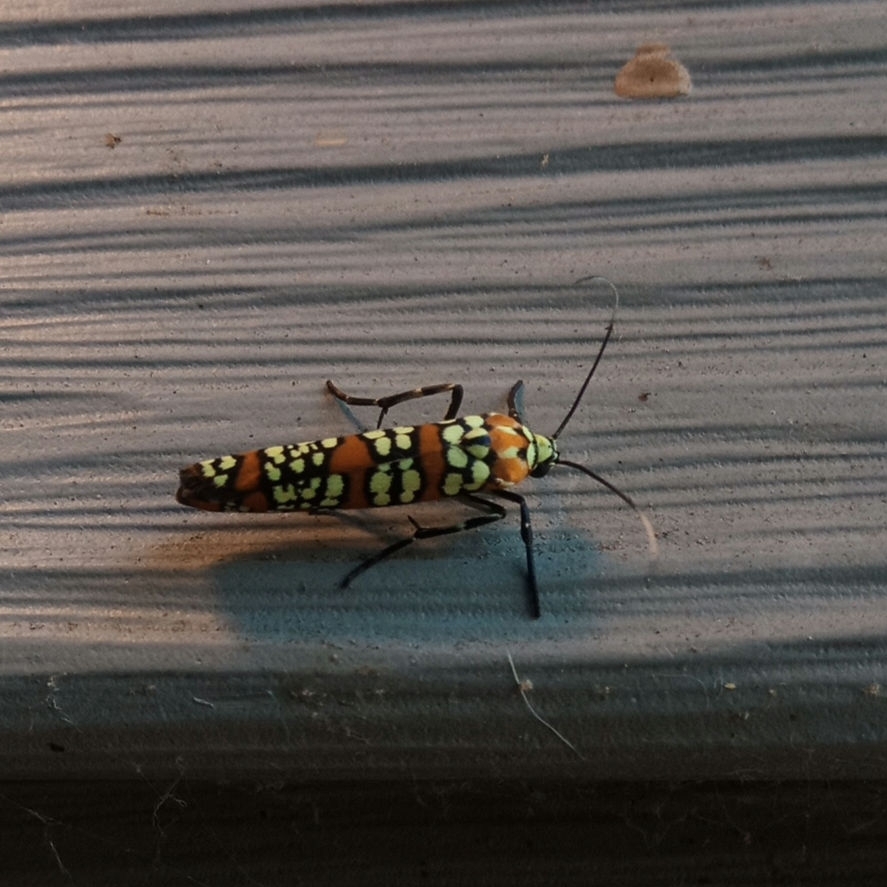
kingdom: Animalia
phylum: Arthropoda
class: Insecta
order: Lepidoptera
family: Attevidae
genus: Atteva
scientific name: Atteva punctella
